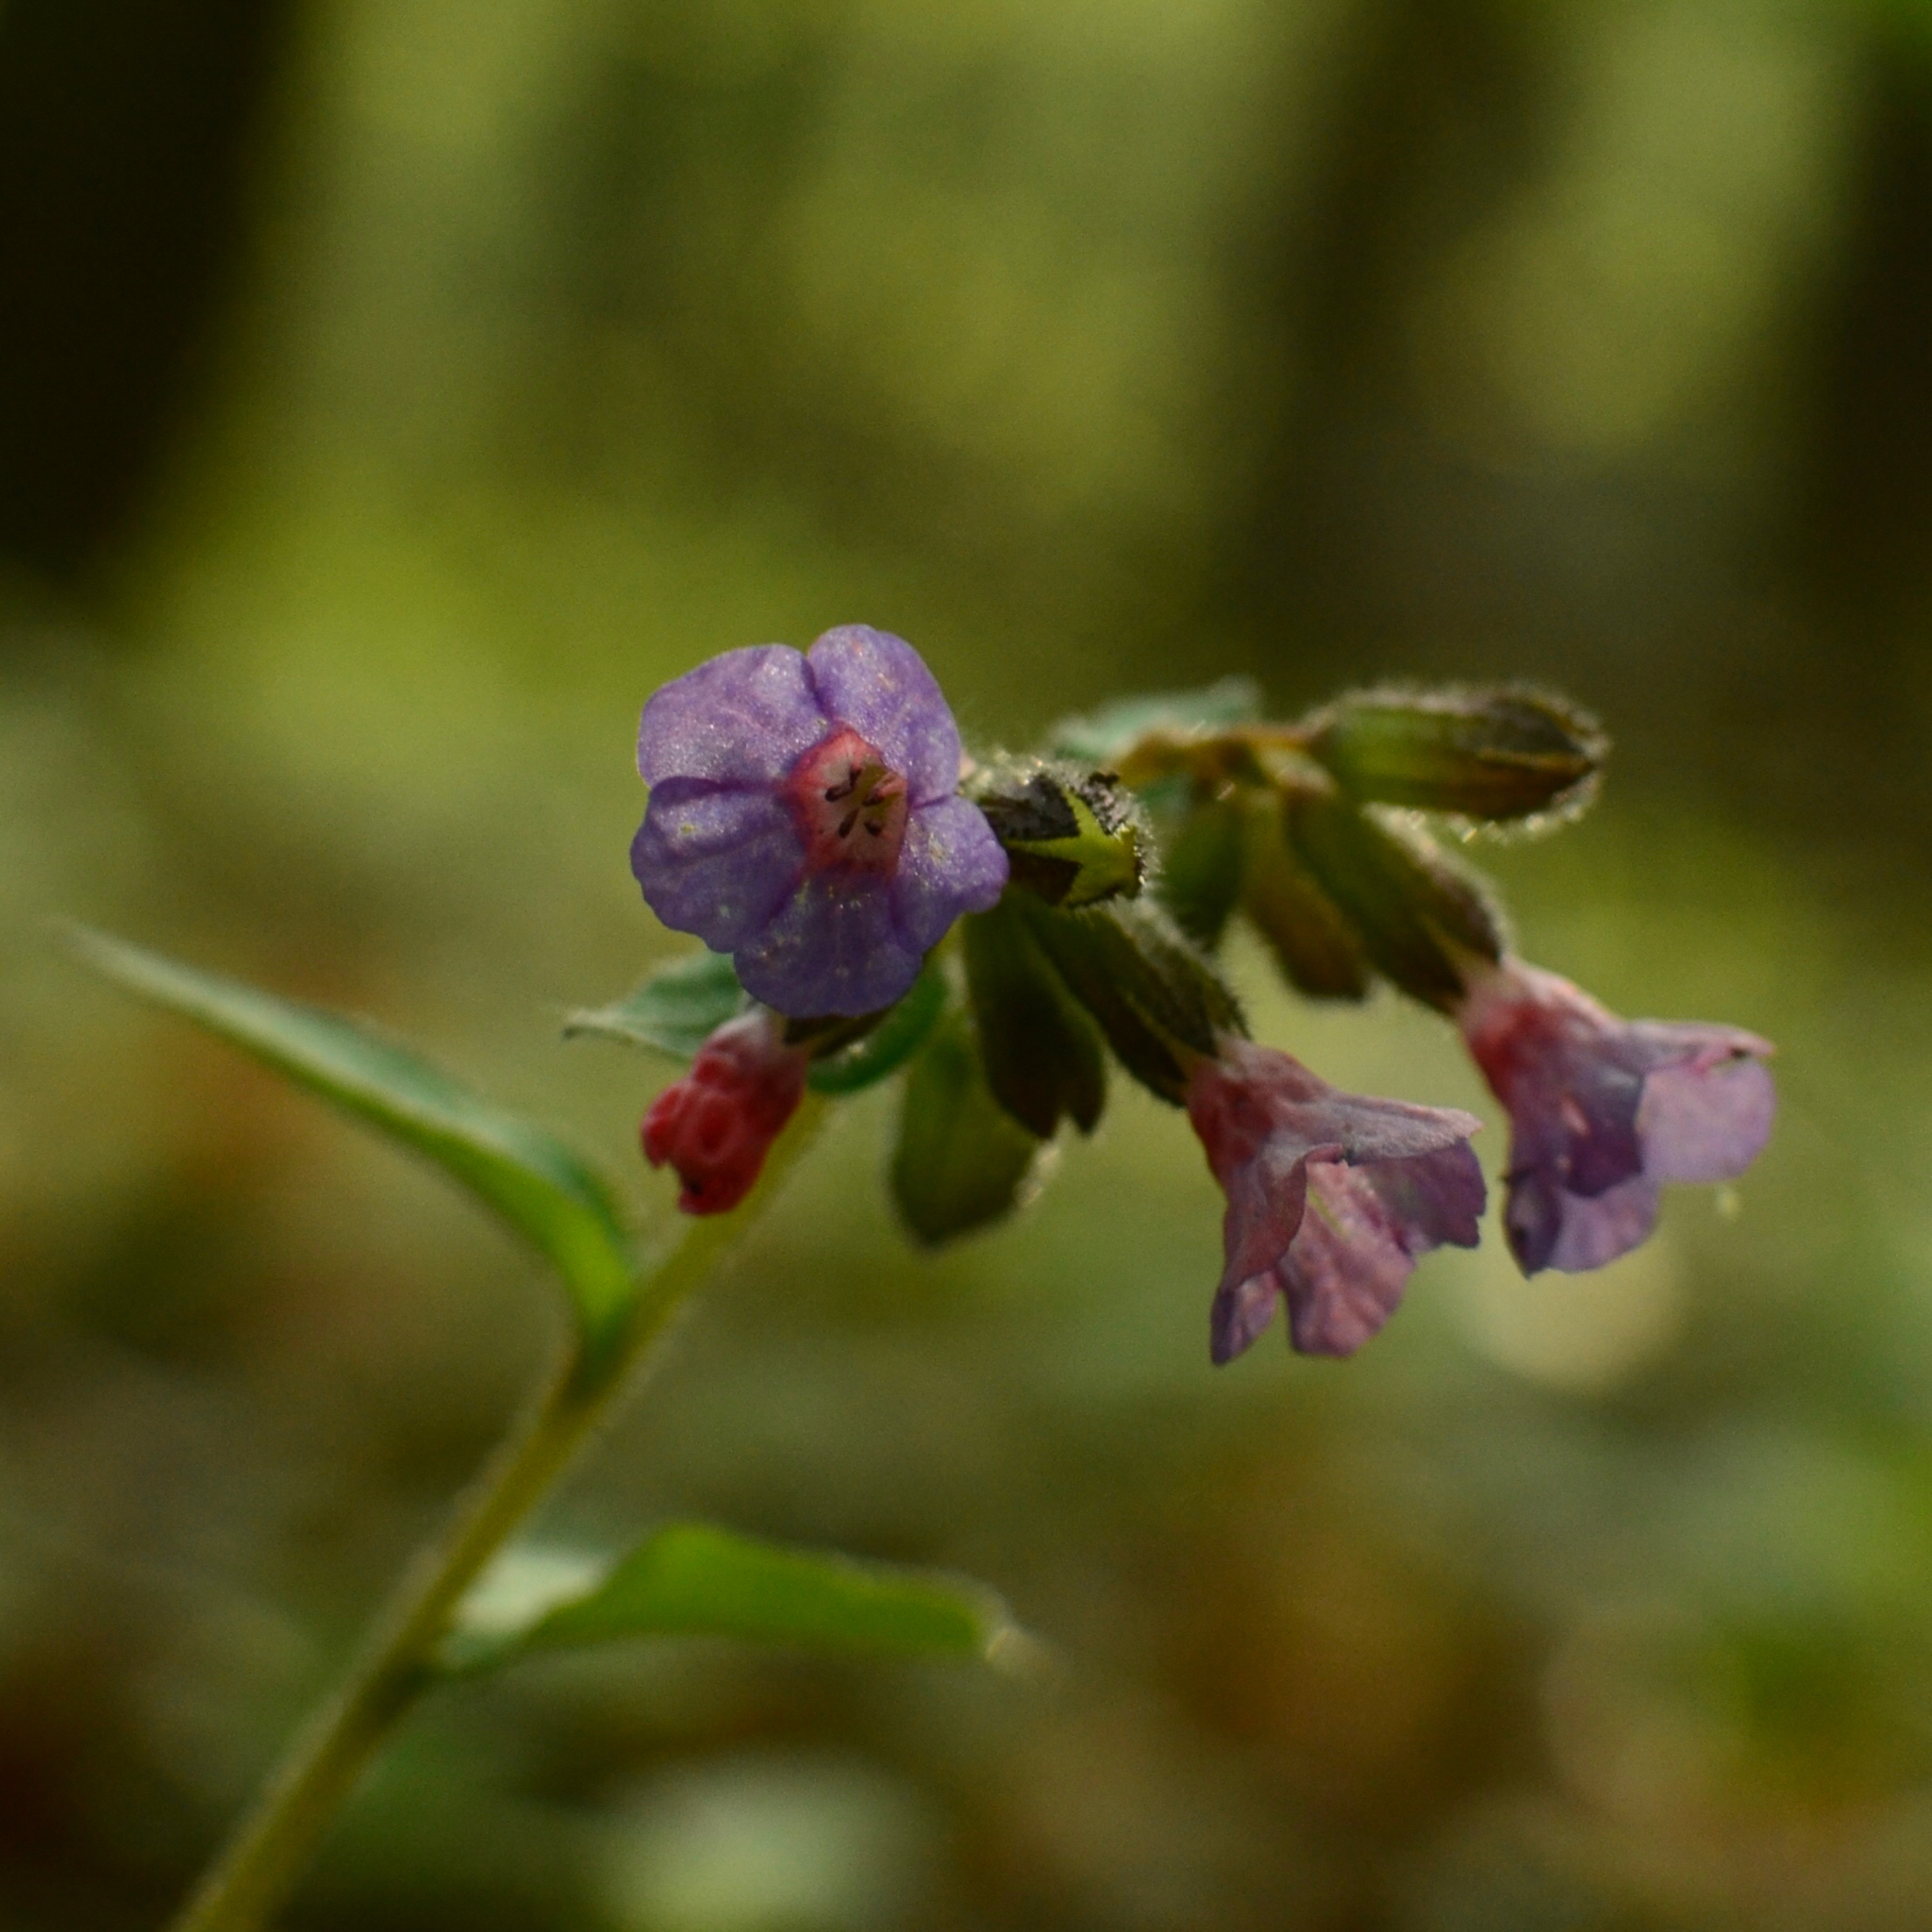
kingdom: Plantae
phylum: Tracheophyta
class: Magnoliopsida
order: Boraginales
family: Boraginaceae
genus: Pulmonaria
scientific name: Pulmonaria obscura
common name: Suffolk lungwort
